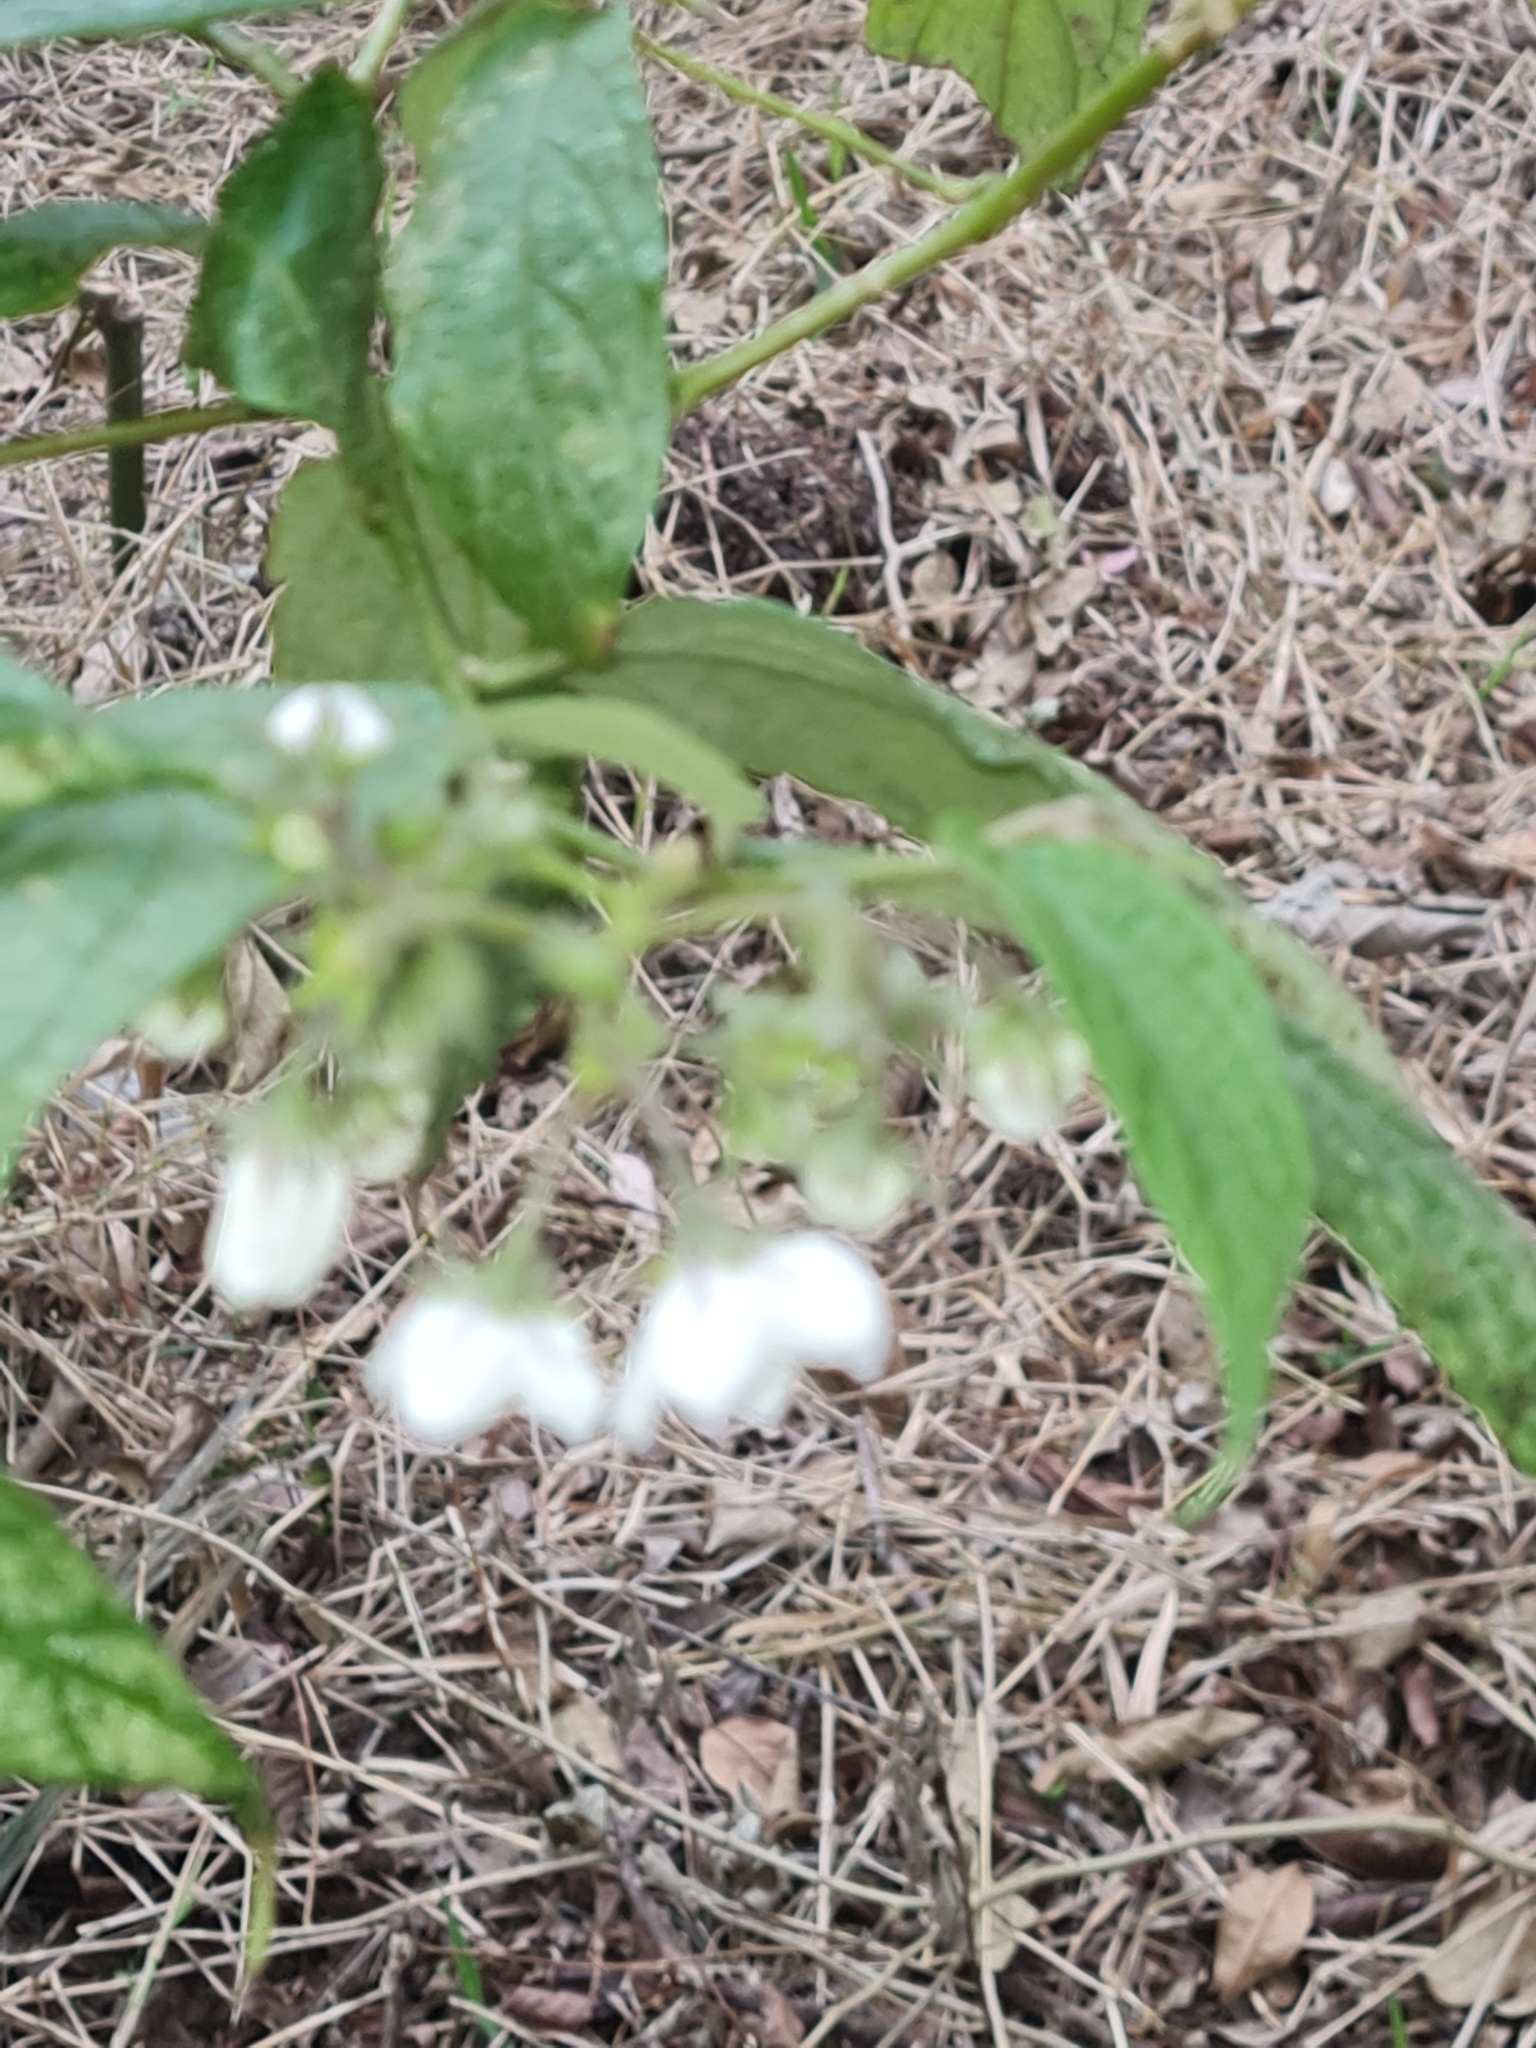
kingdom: Plantae
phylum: Tracheophyta
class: Magnoliopsida
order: Solanales
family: Solanaceae
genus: Solanum
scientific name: Solanum concinnum
